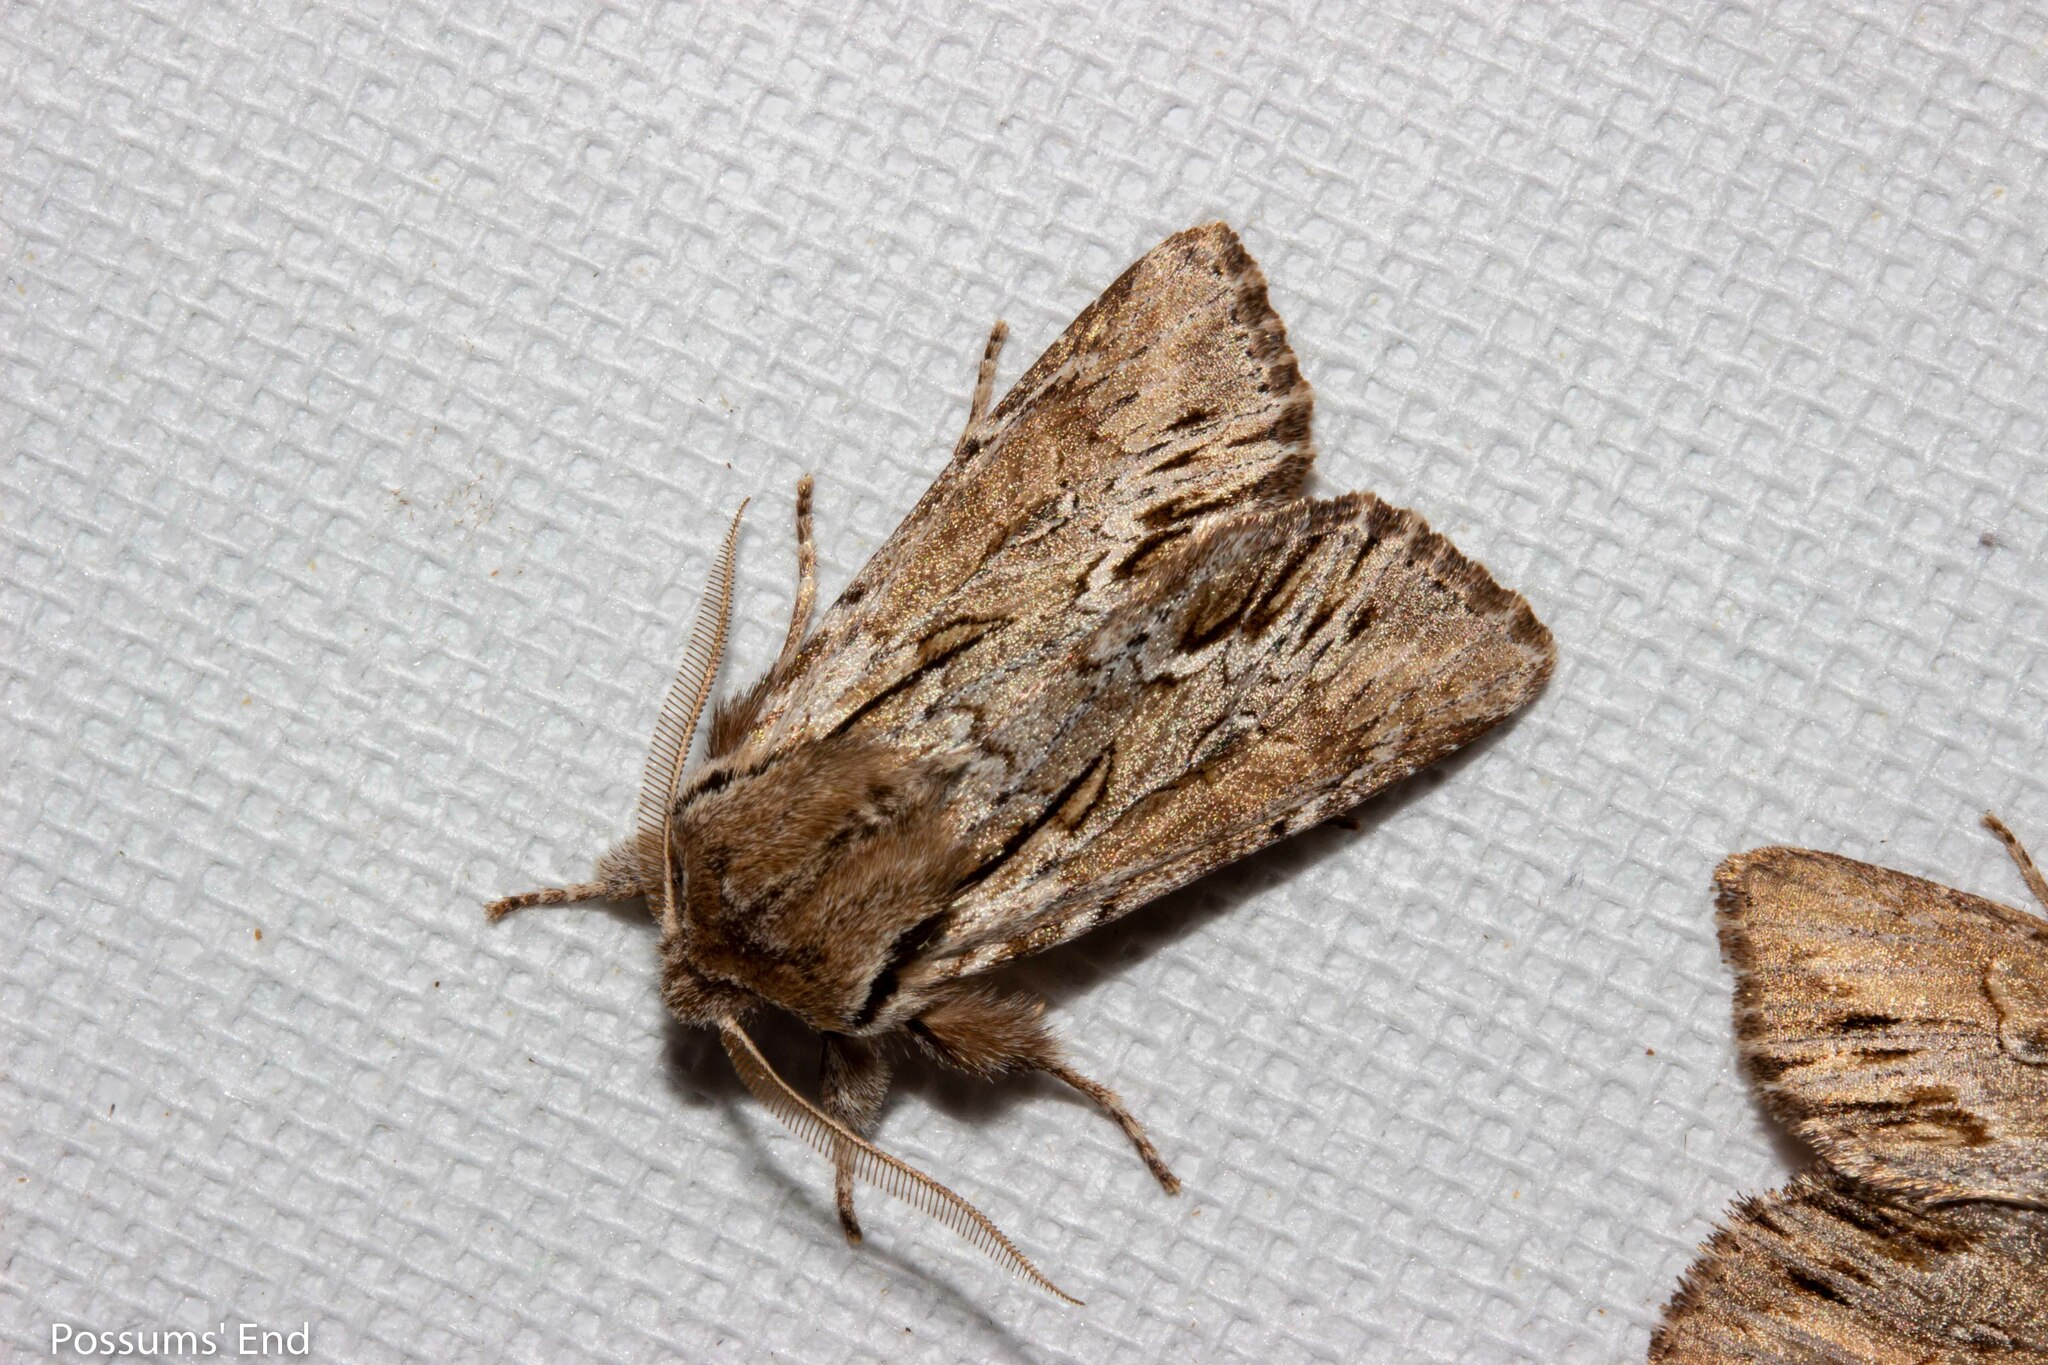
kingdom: Animalia
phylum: Arthropoda
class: Insecta
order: Lepidoptera
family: Noctuidae
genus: Ichneutica
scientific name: Ichneutica
